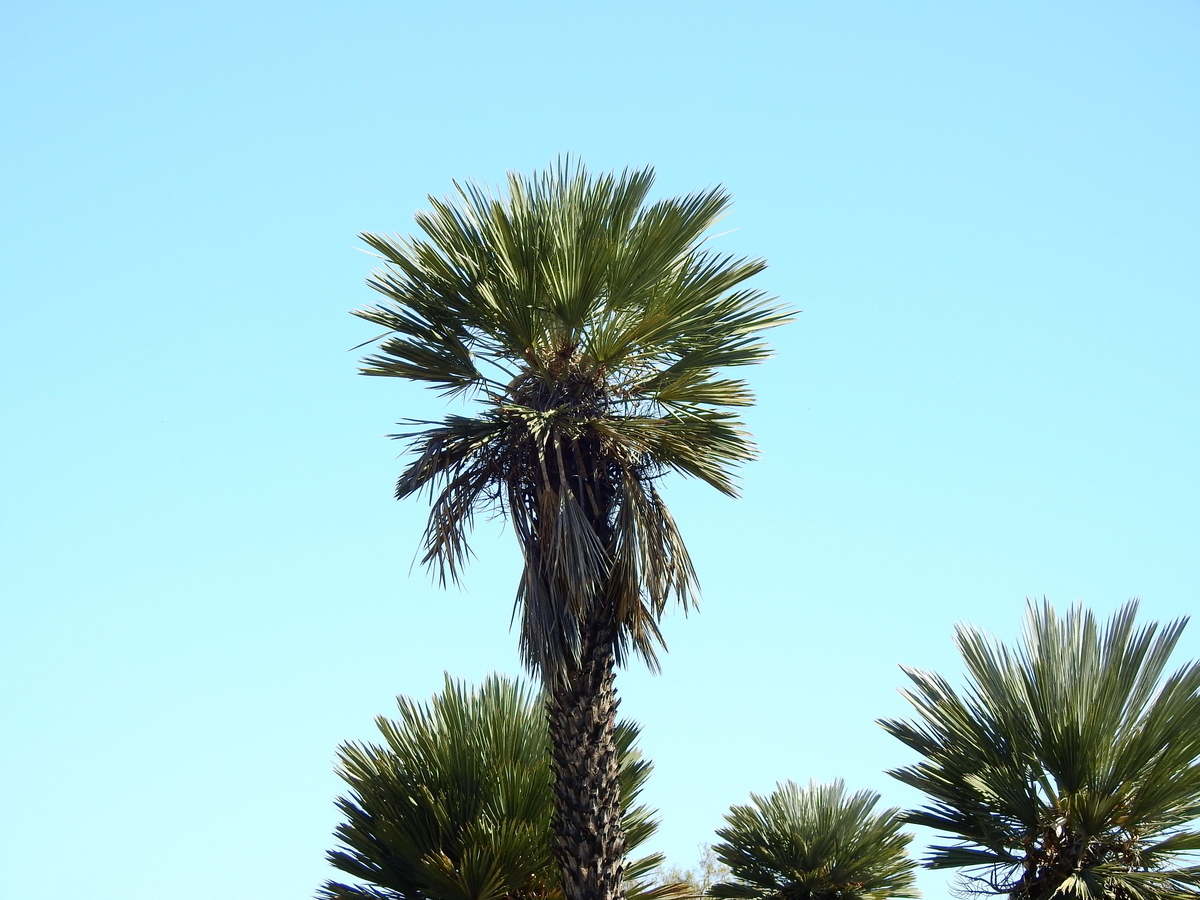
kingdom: Plantae
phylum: Tracheophyta
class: Liliopsida
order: Arecales
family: Arecaceae
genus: Trithrinax
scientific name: Trithrinax campestris
